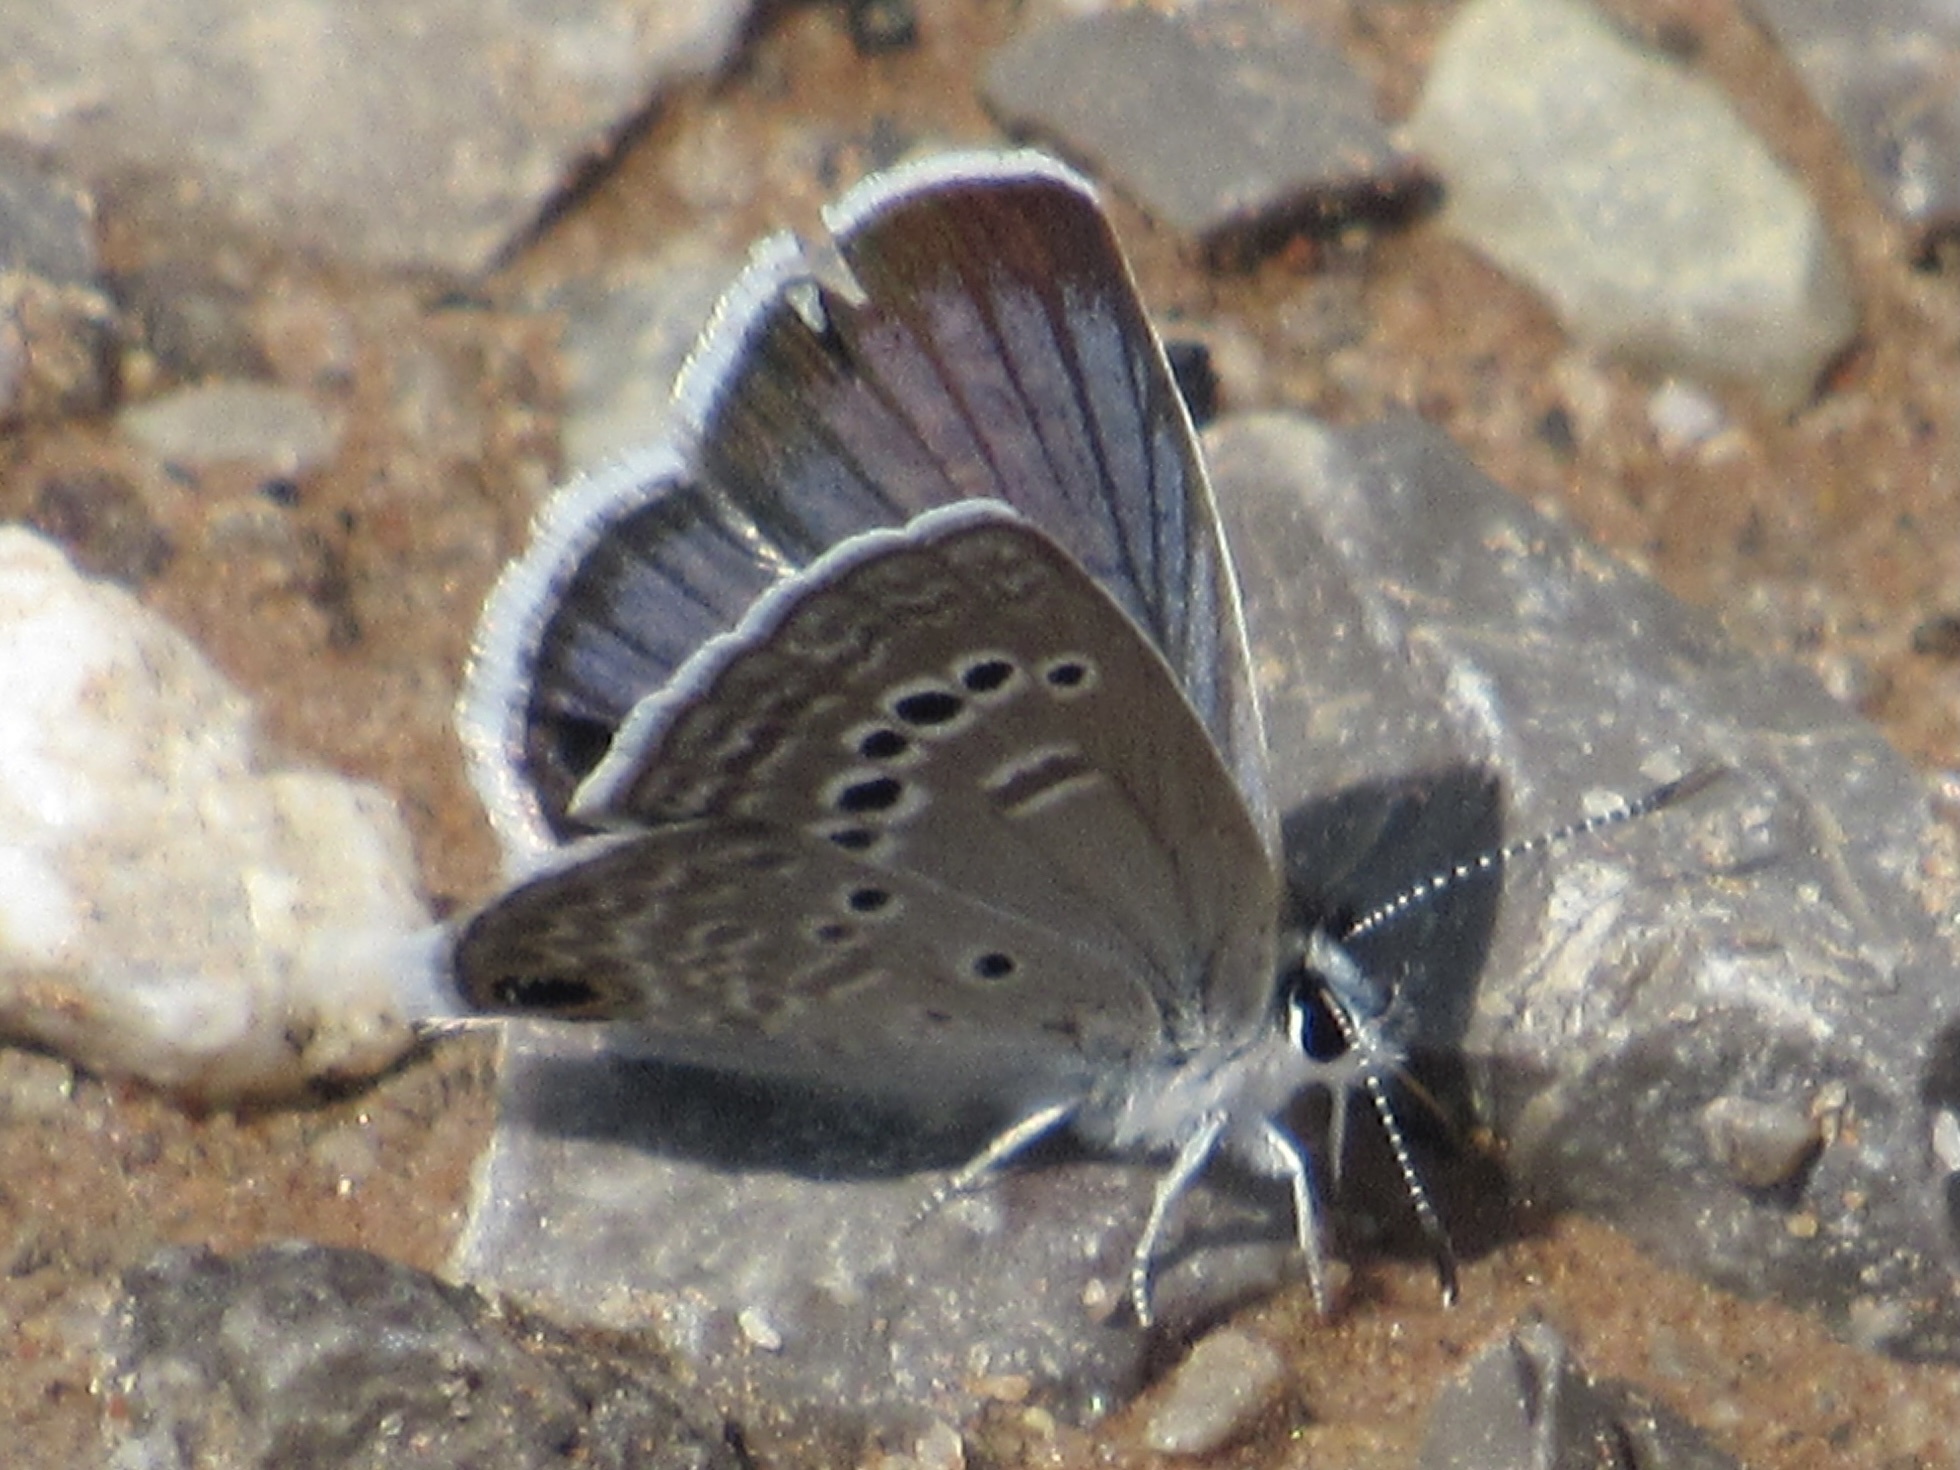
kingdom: Animalia
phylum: Arthropoda
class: Insecta
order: Lepidoptera
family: Lycaenidae
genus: Echinargus
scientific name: Echinargus isola
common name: Reakirt's blue
